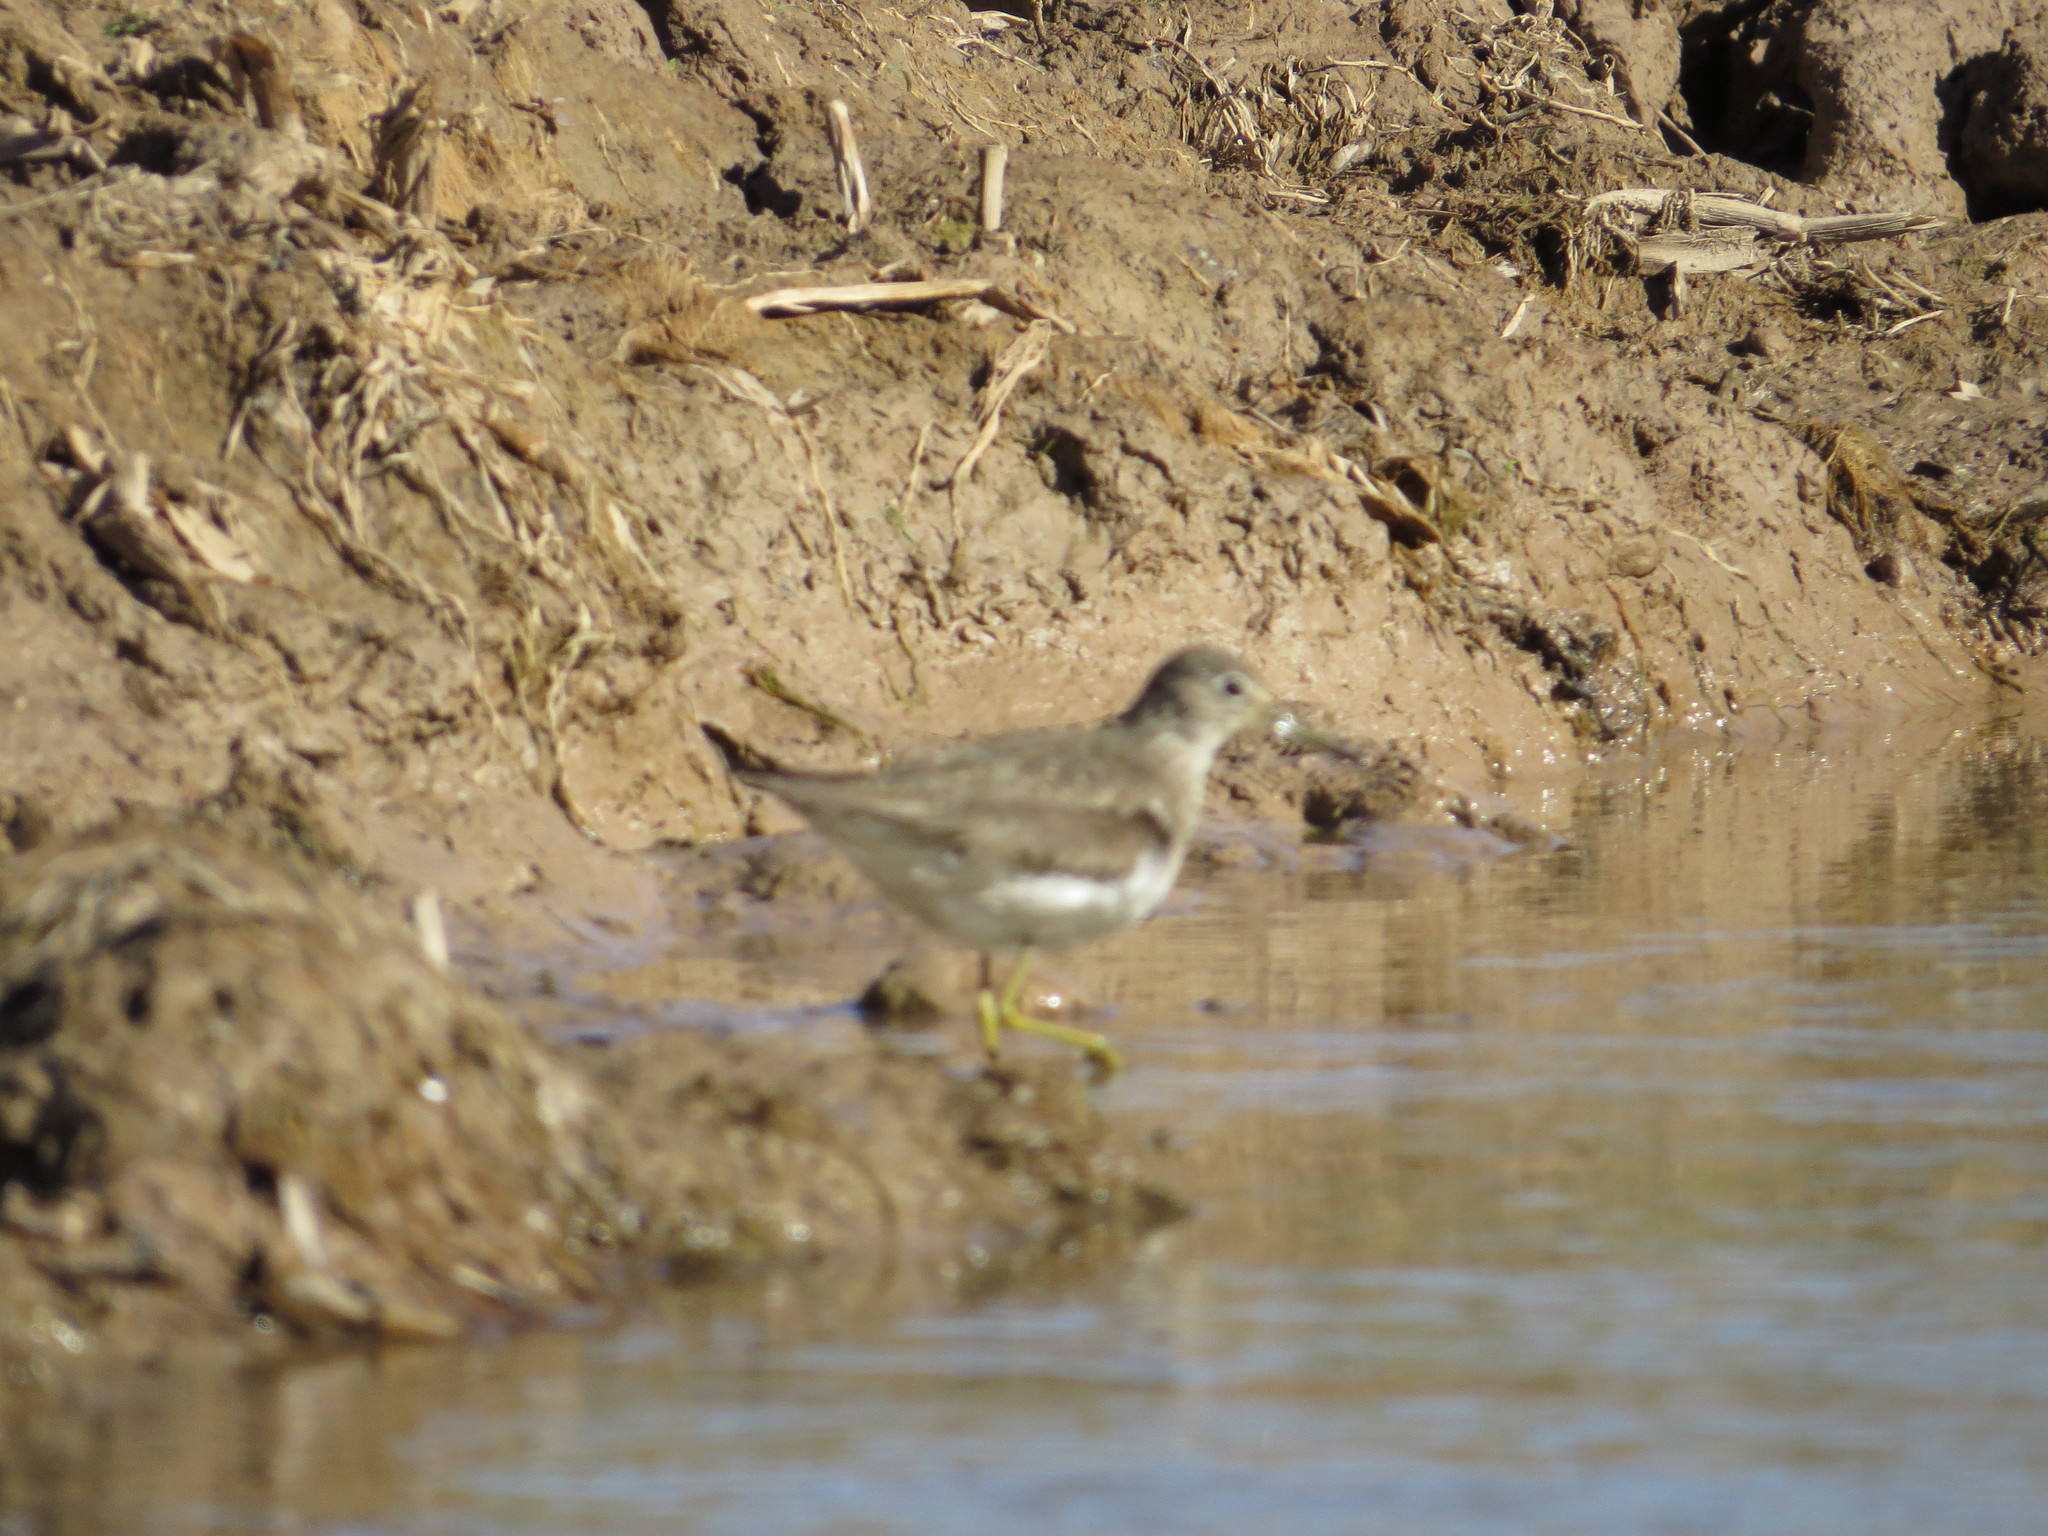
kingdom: Animalia
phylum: Chordata
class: Aves
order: Charadriiformes
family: Scolopacidae
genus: Tringa
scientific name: Tringa solitaria
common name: Solitary sandpiper
